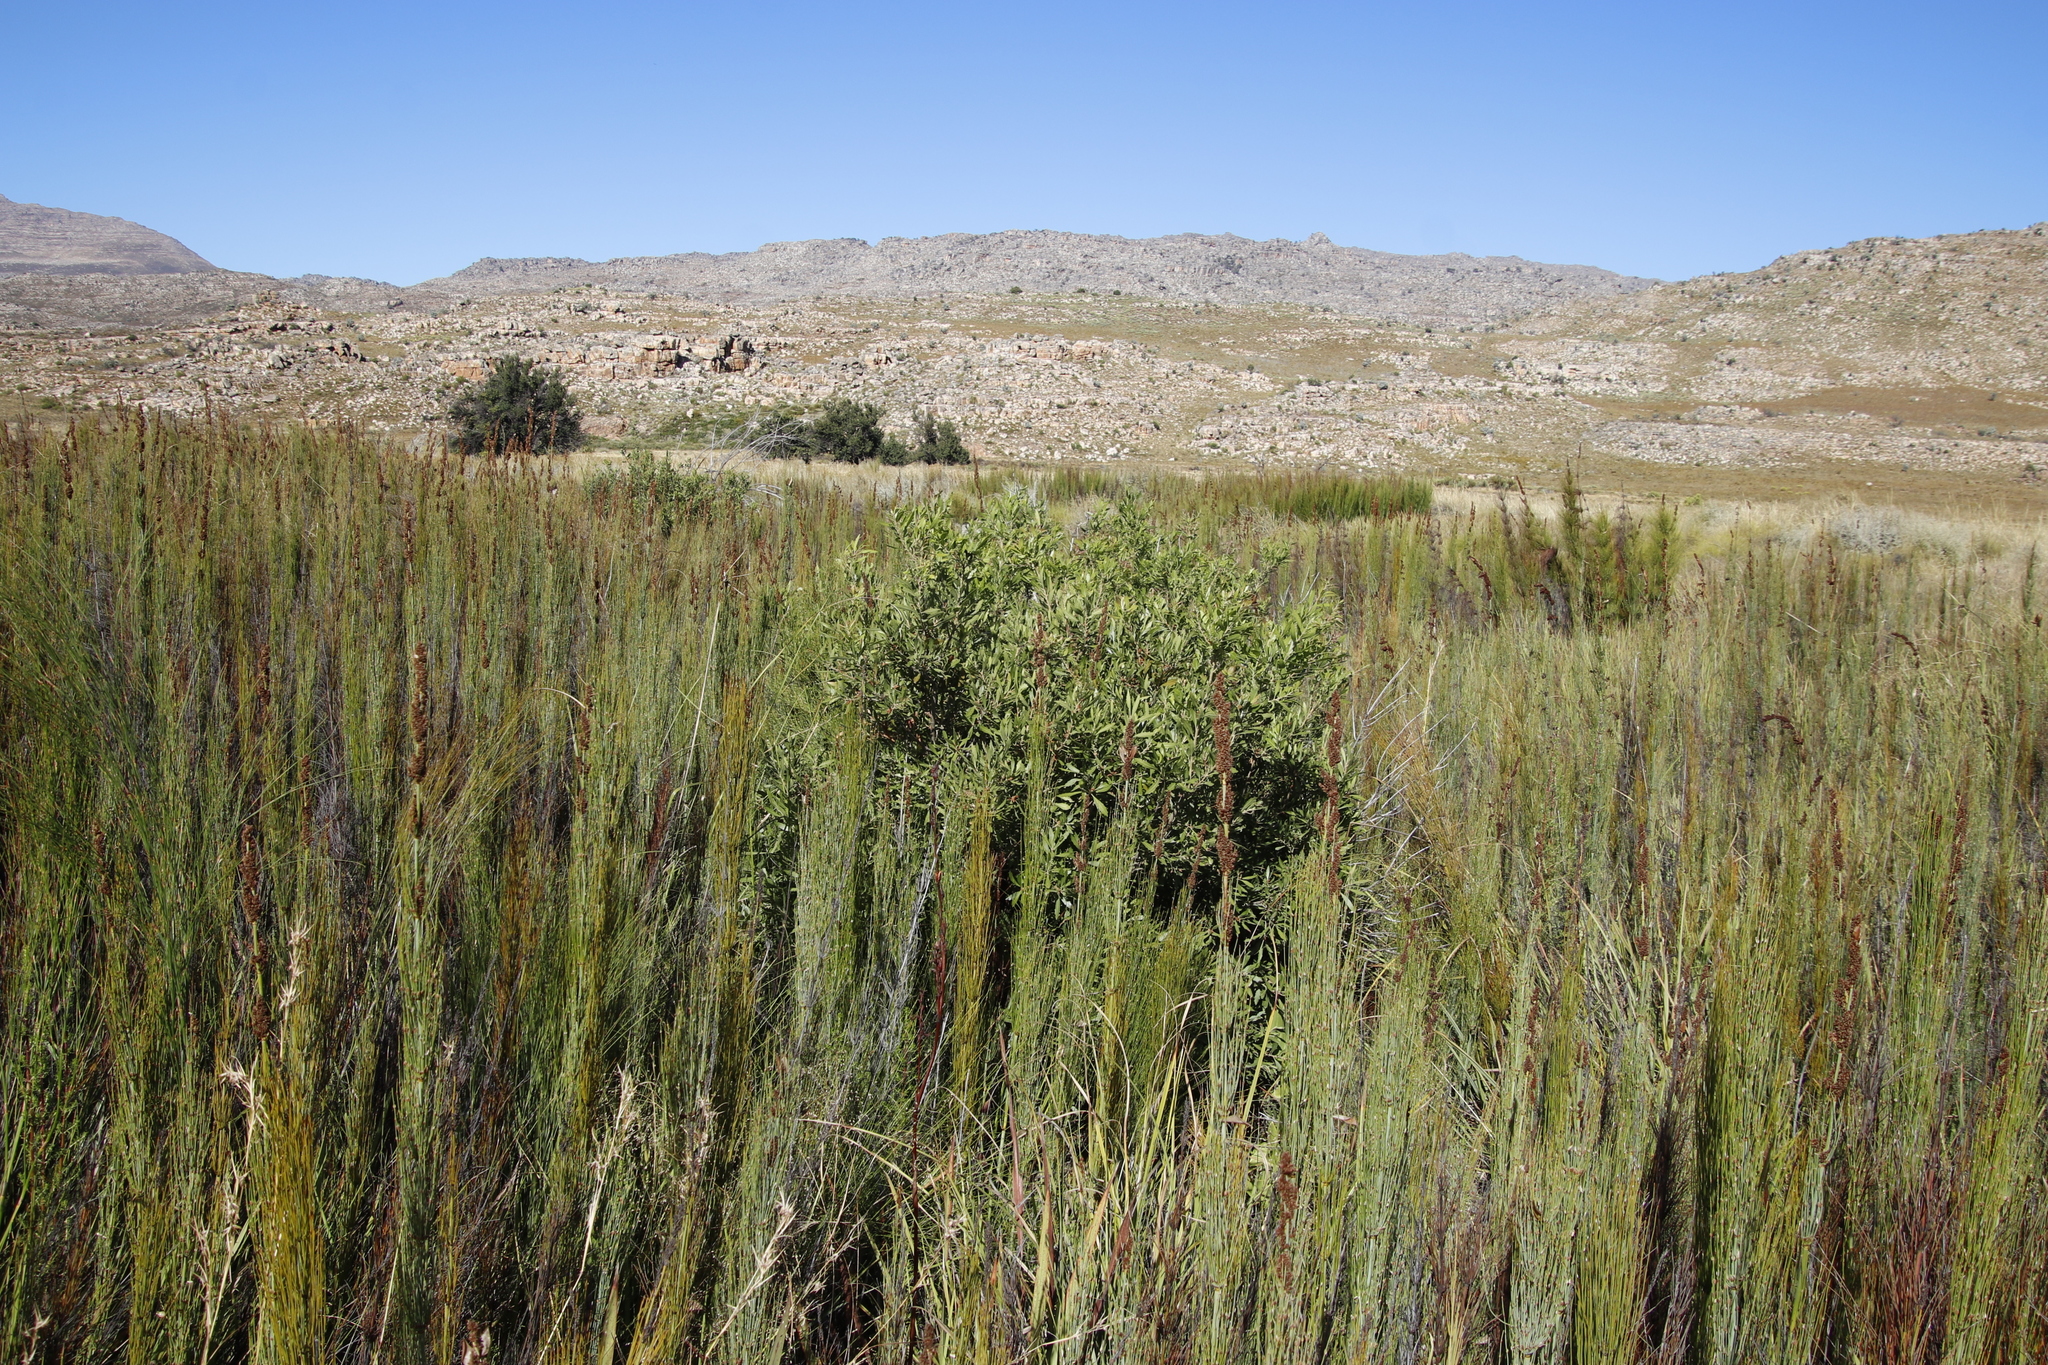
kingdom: Plantae
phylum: Tracheophyta
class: Magnoliopsida
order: Asterales
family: Asteraceae
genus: Brachylaena
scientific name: Brachylaena neriifolia
